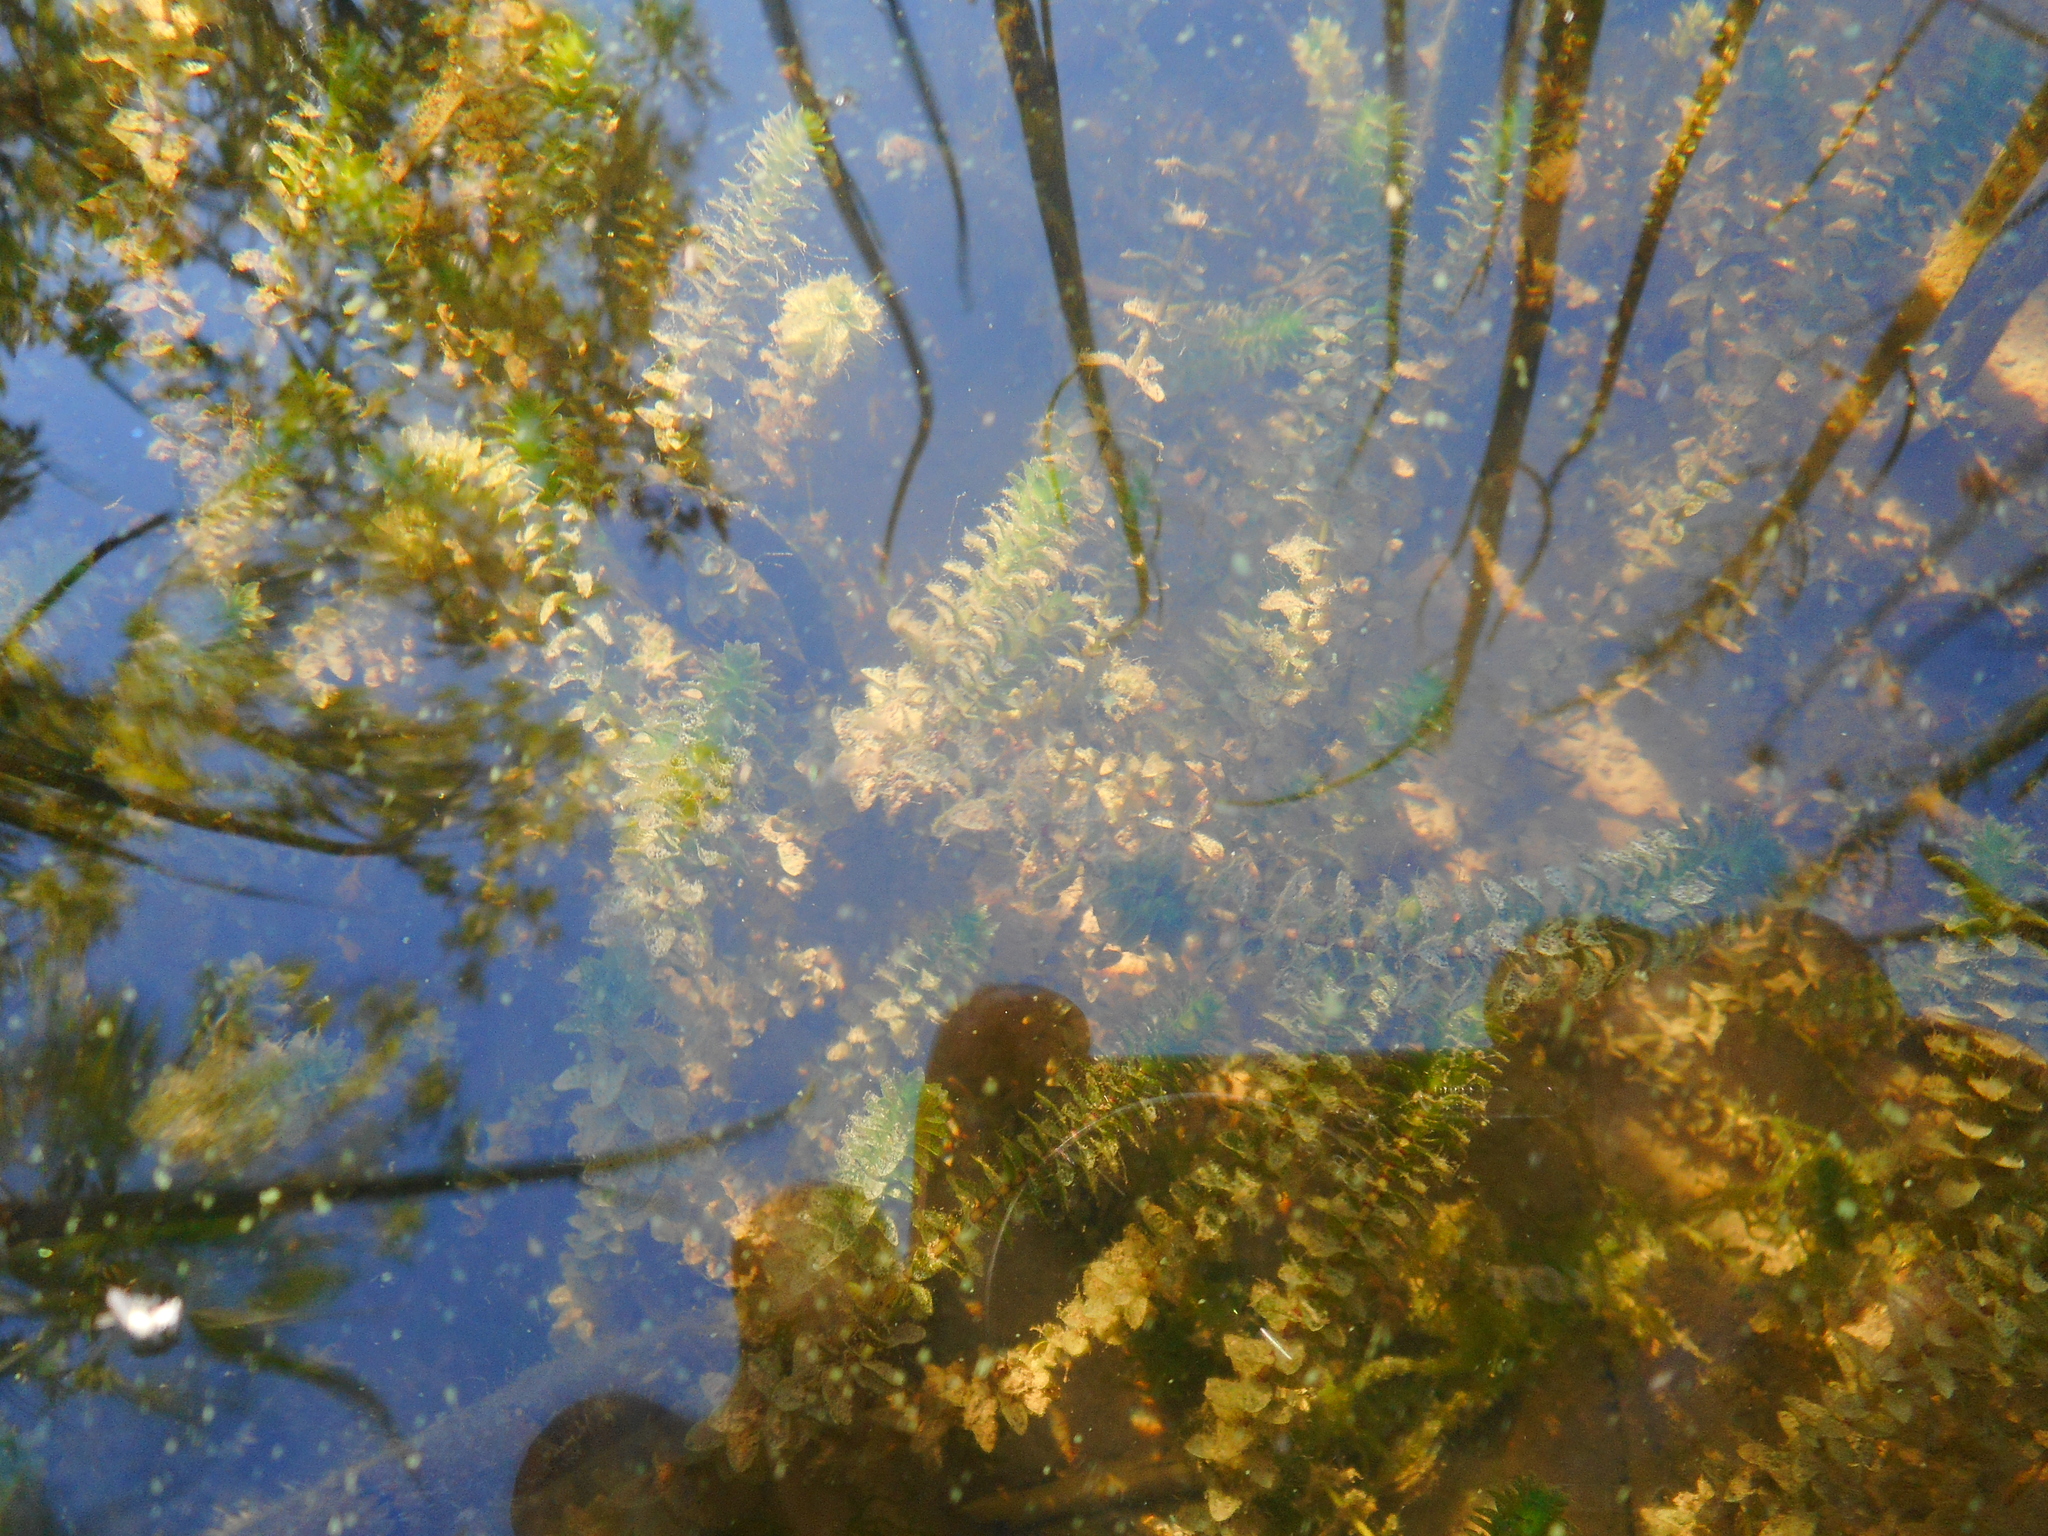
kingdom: Plantae
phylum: Tracheophyta
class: Liliopsida
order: Alismatales
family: Hydrocharitaceae
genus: Elodea
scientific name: Elodea canadensis
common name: Canadian waterweed
